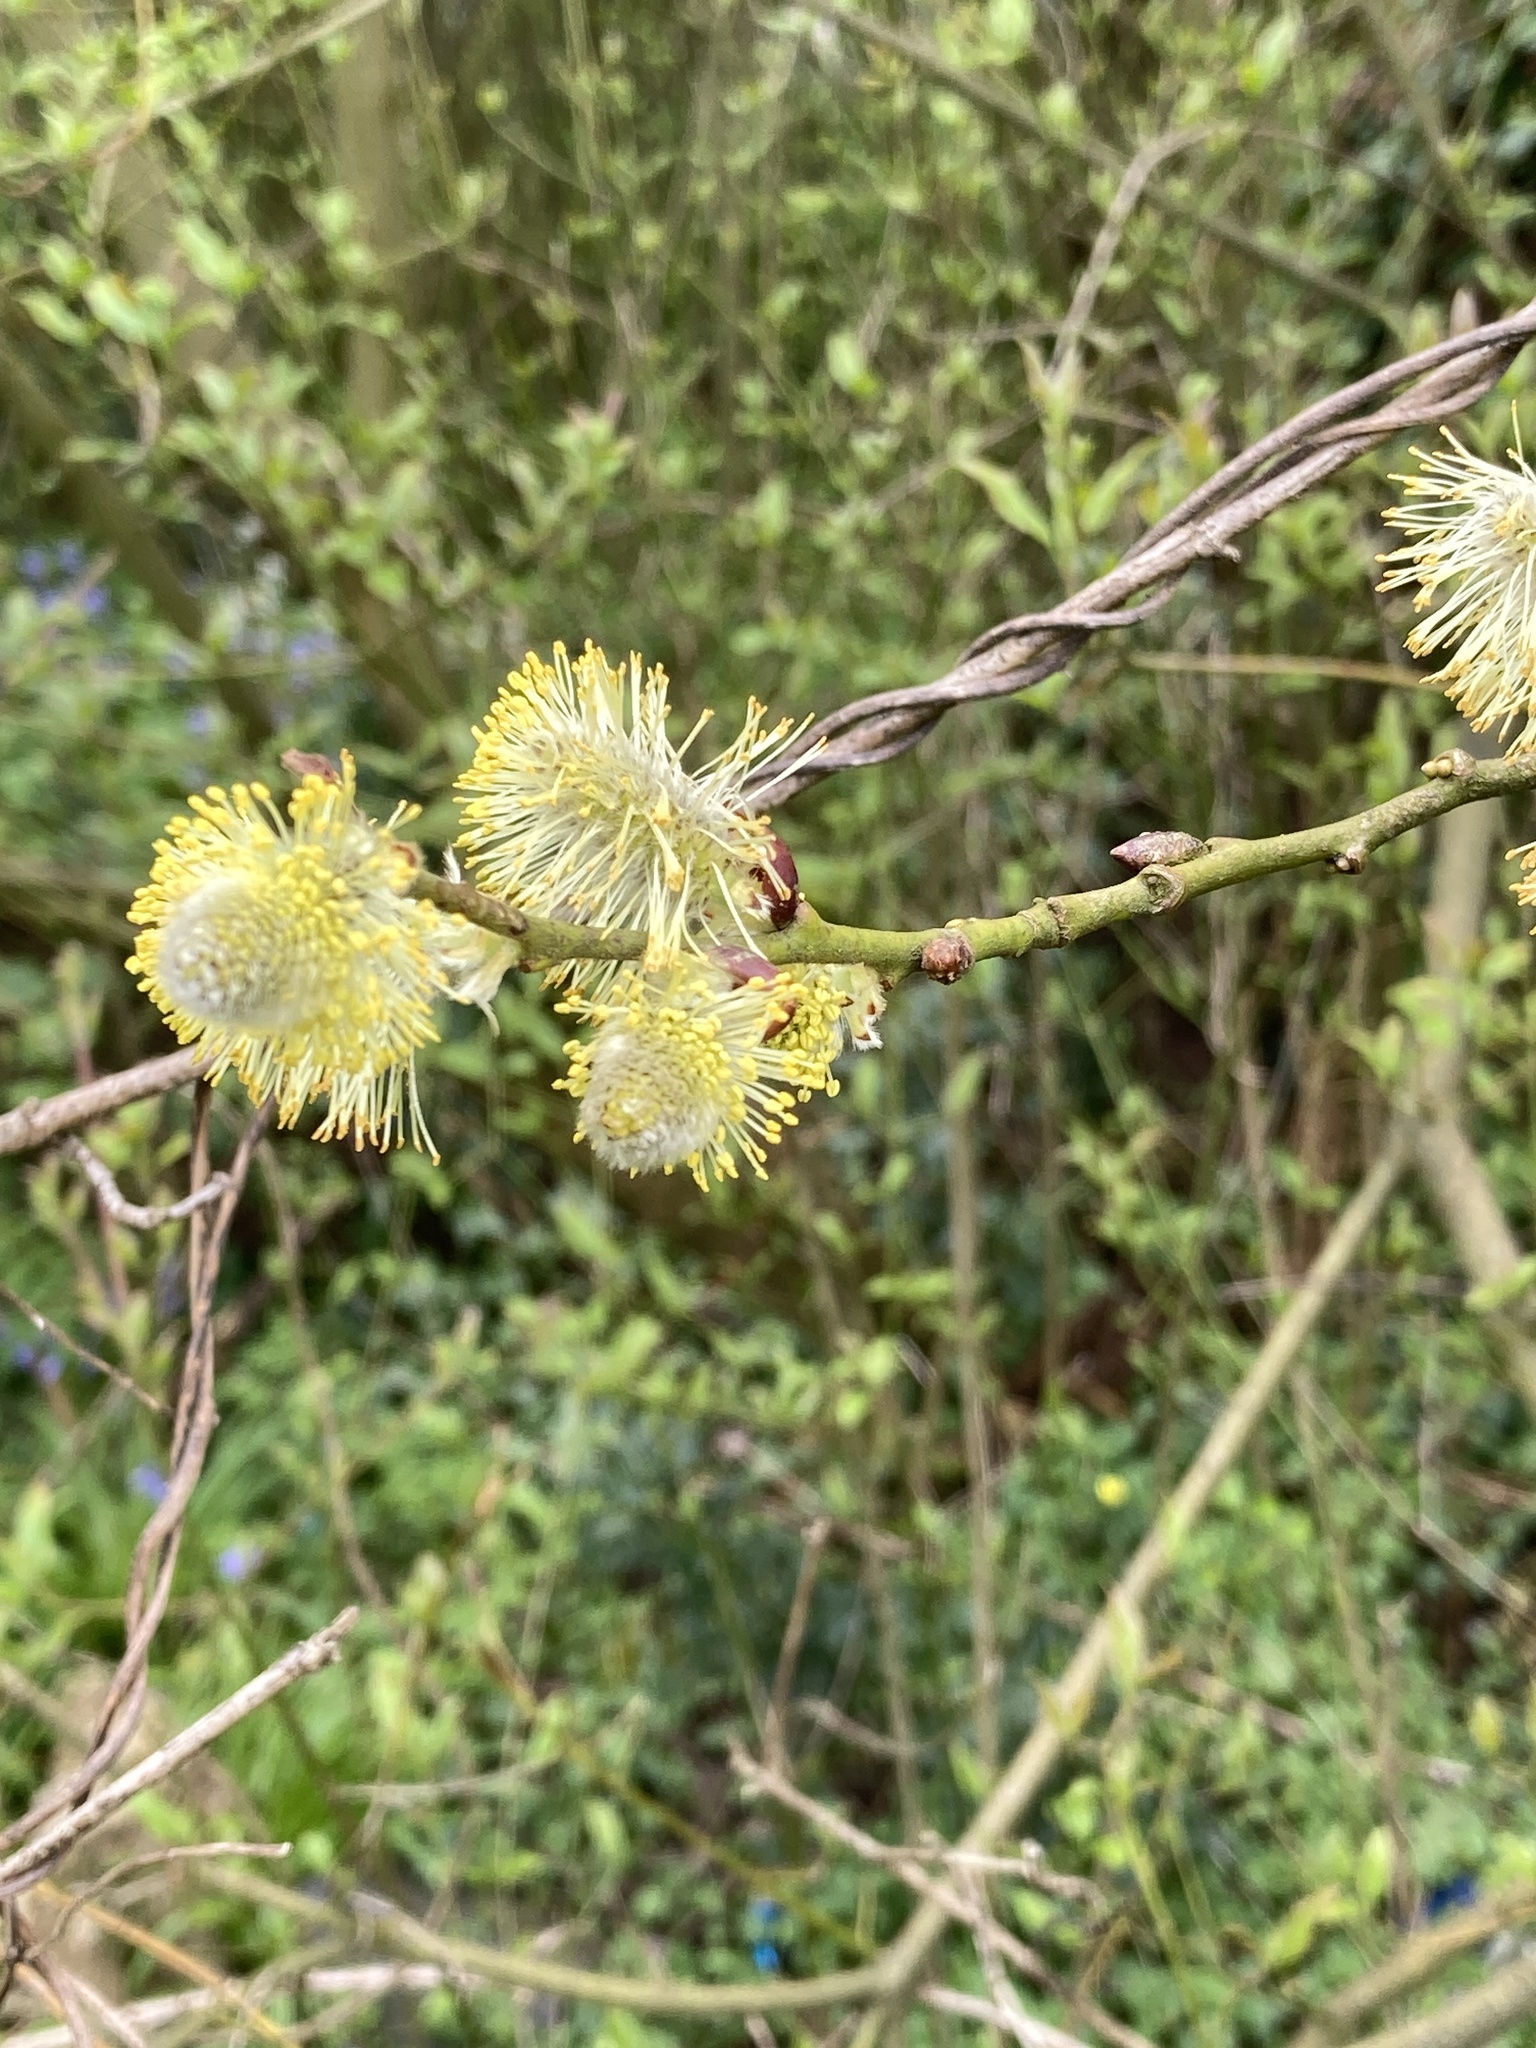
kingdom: Plantae
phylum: Tracheophyta
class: Magnoliopsida
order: Malpighiales
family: Salicaceae
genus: Salix
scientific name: Salix caprea
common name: Goat willow
